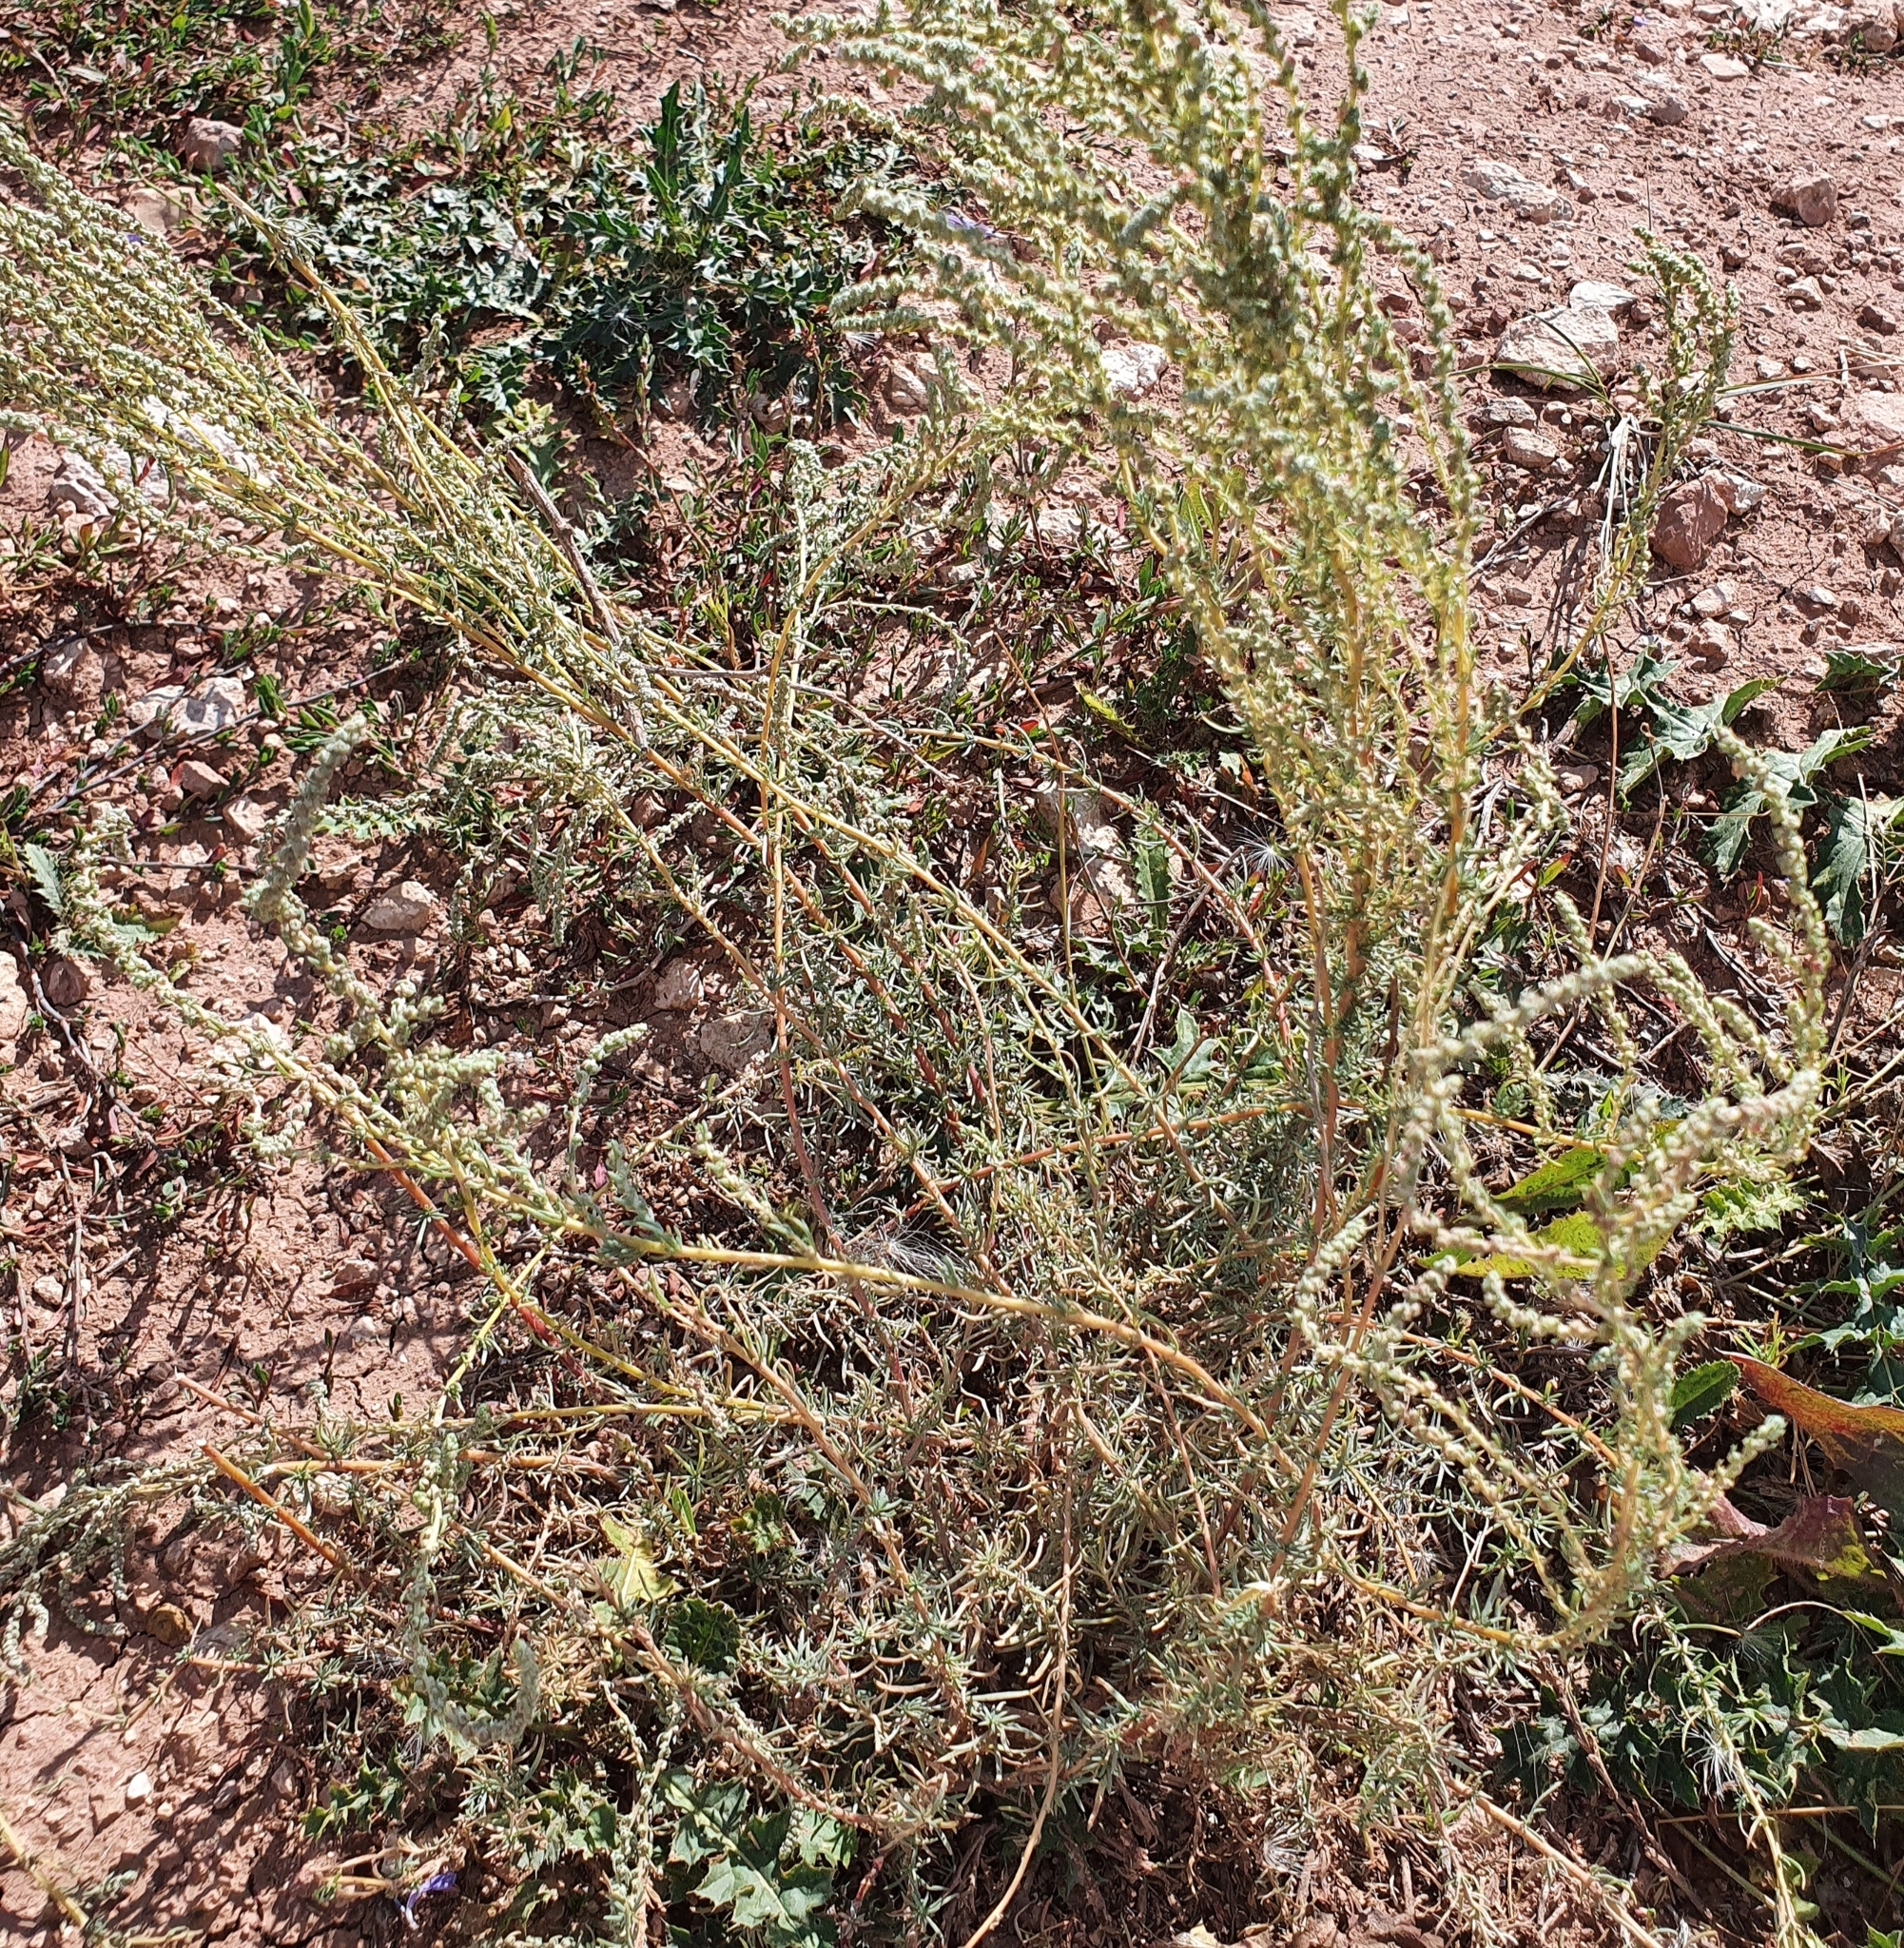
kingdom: Plantae
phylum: Tracheophyta
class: Magnoliopsida
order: Caryophyllales
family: Amaranthaceae
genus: Bassia
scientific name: Bassia prostrata
